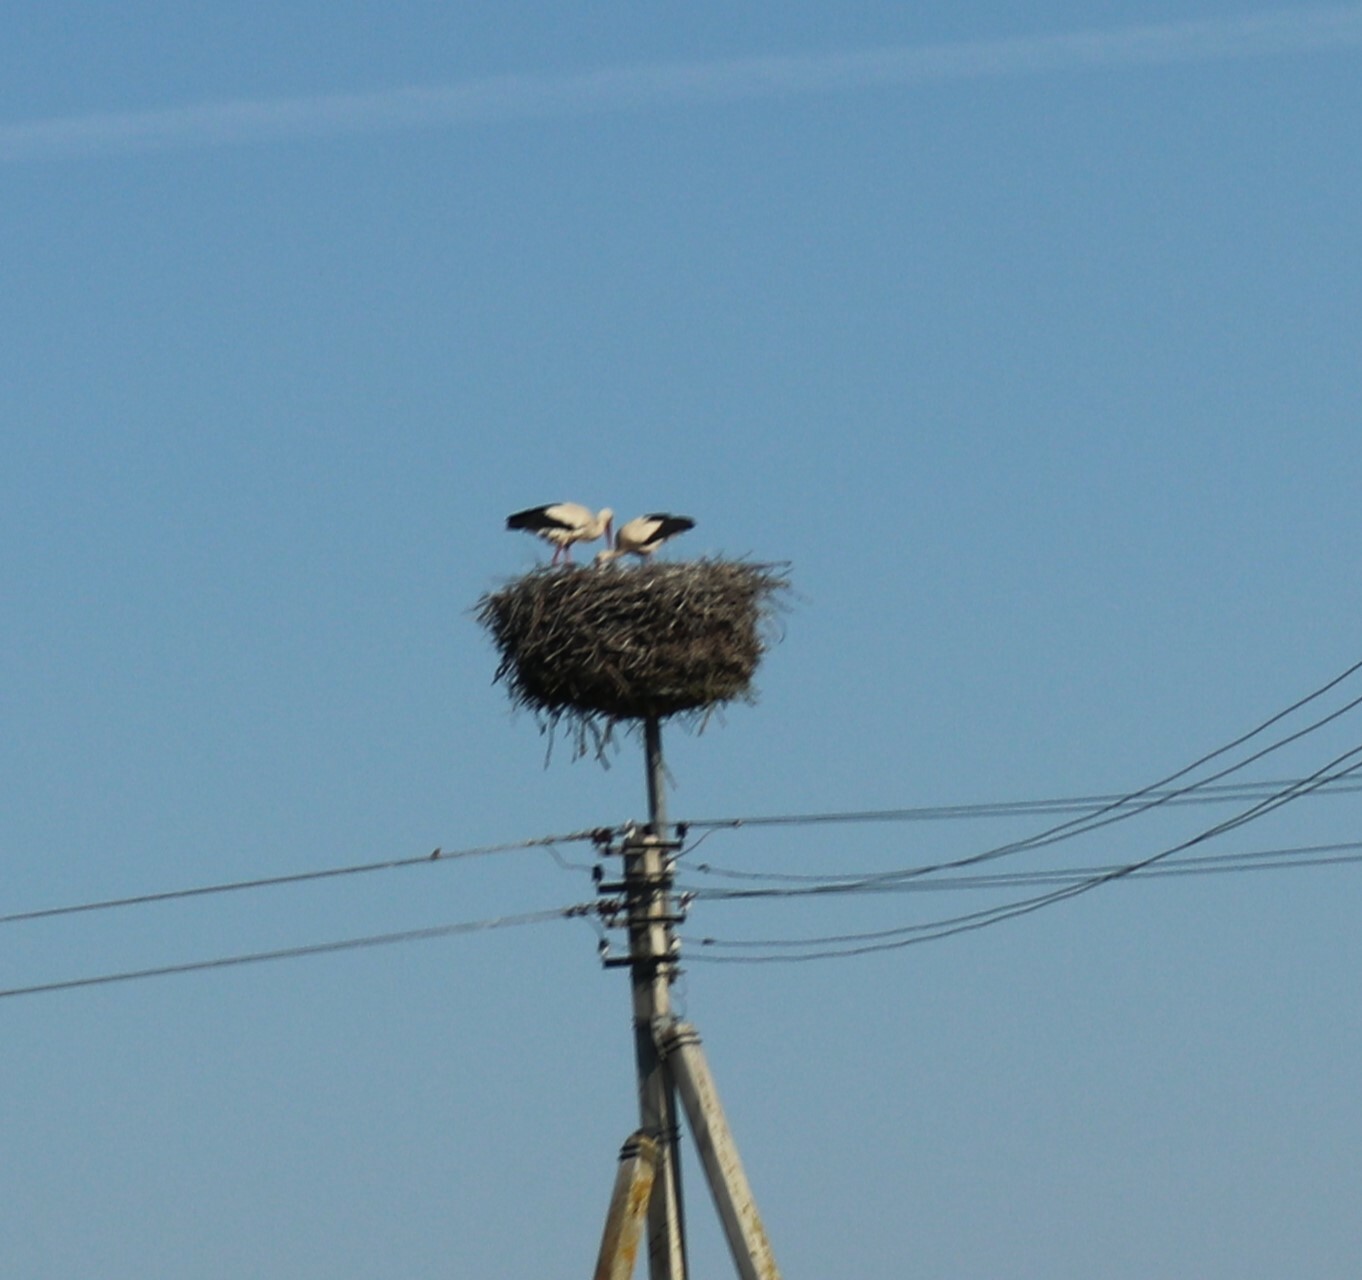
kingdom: Animalia
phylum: Chordata
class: Aves
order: Ciconiiformes
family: Ciconiidae
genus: Ciconia
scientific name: Ciconia ciconia
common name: White stork
